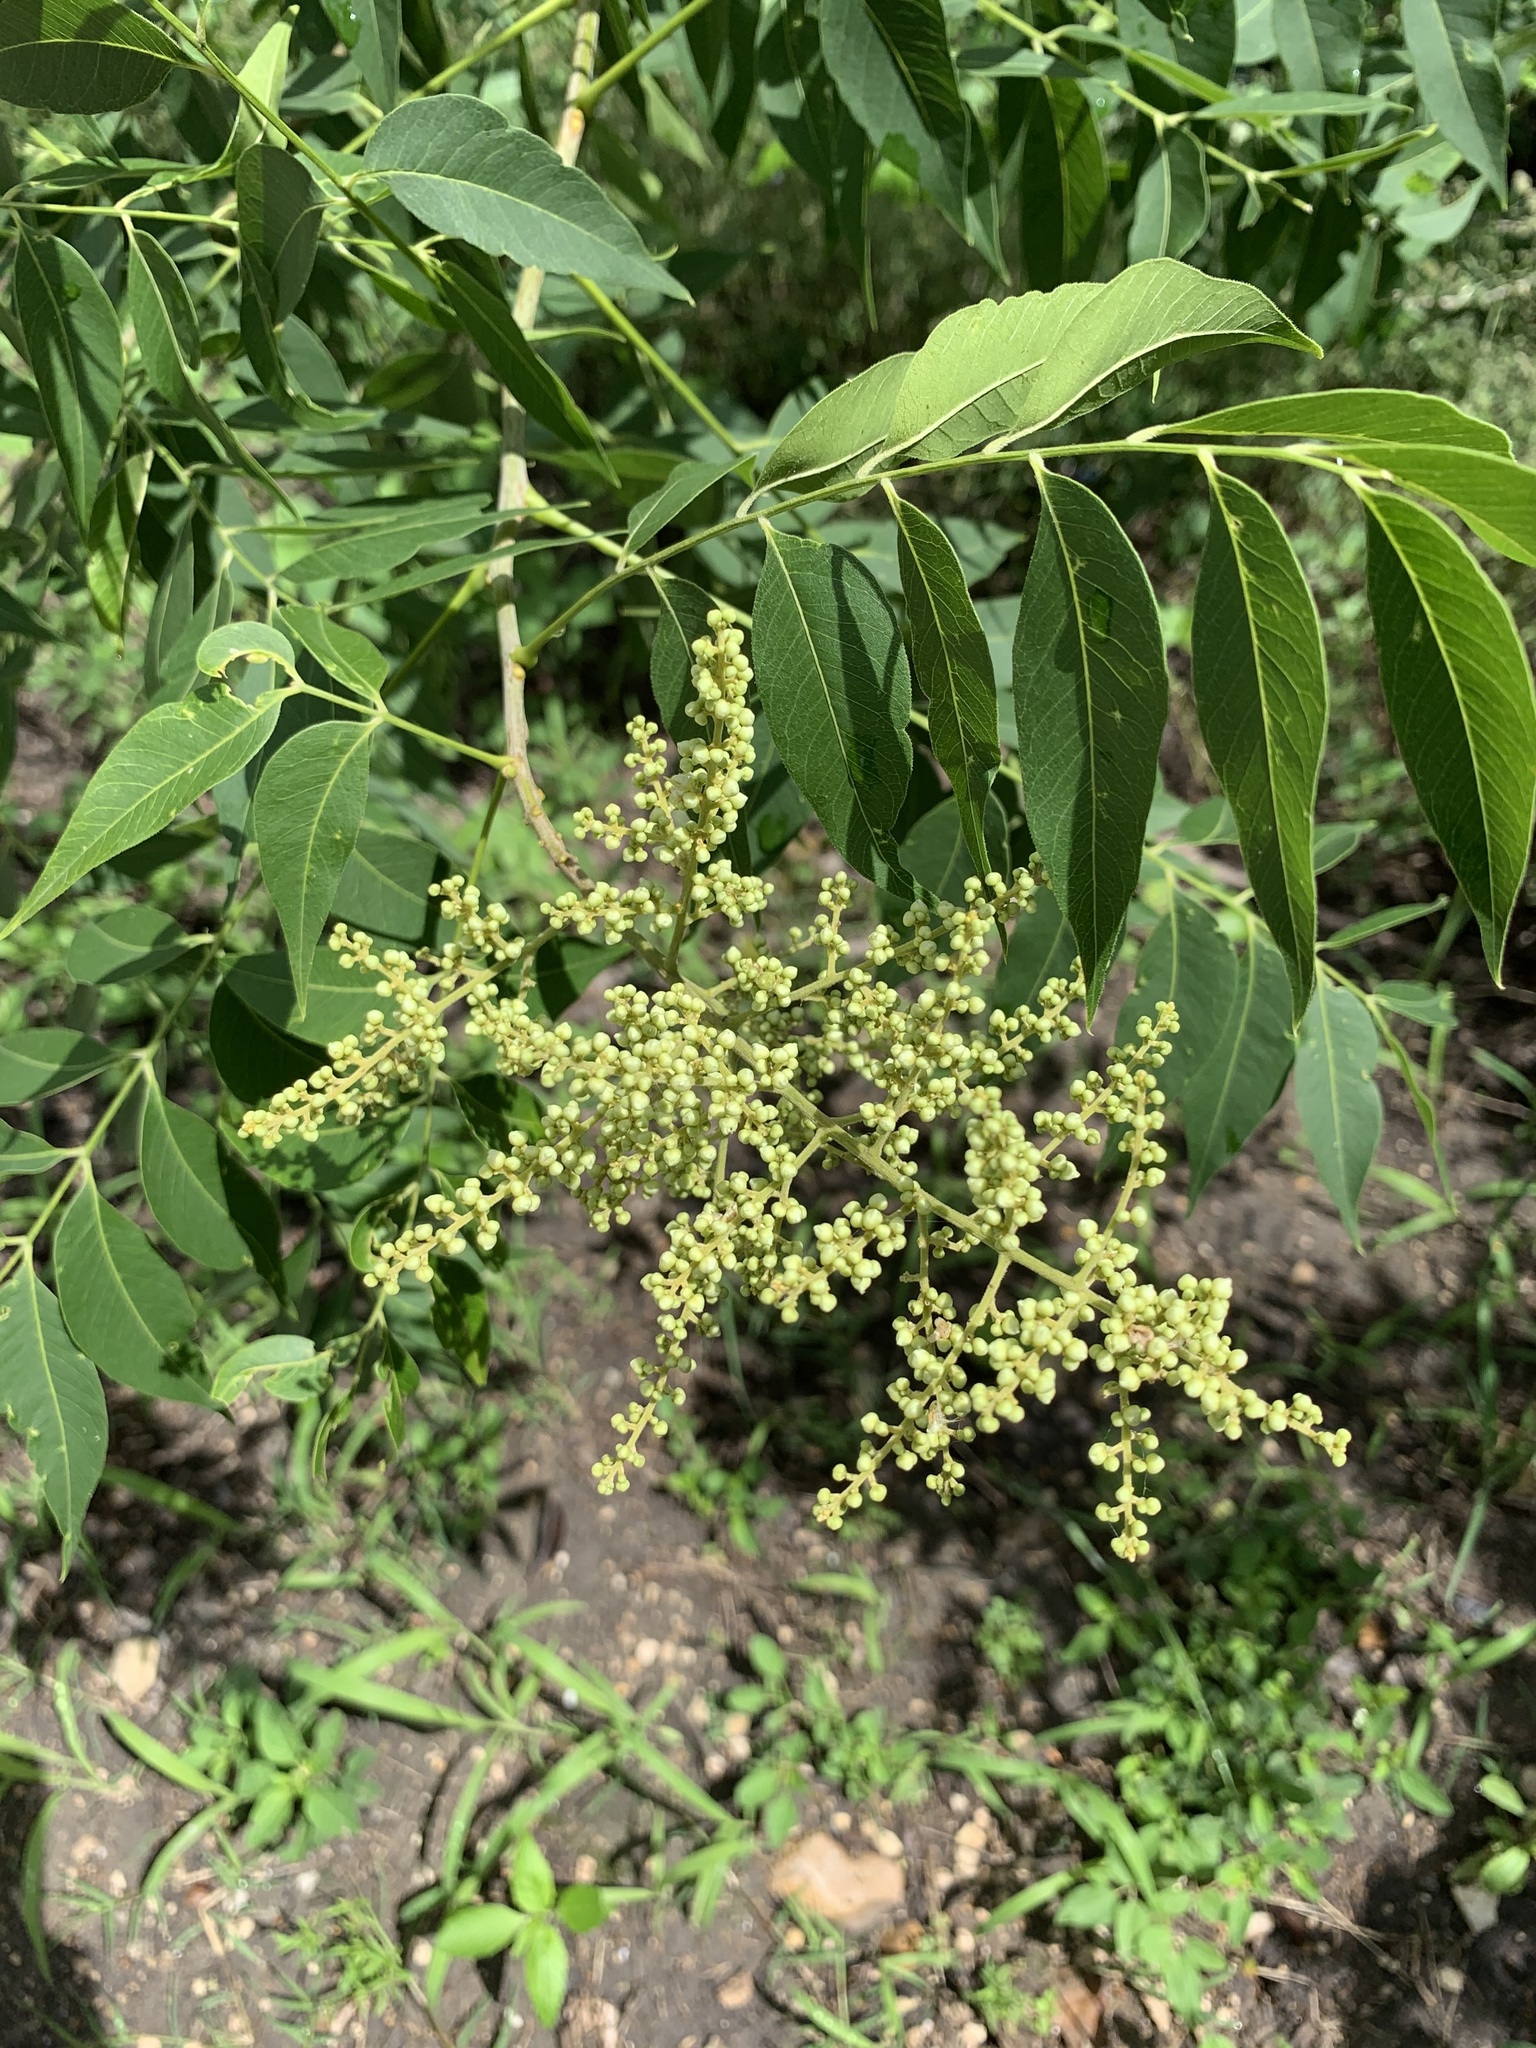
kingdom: Plantae
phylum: Tracheophyta
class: Magnoliopsida
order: Sapindales
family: Sapindaceae
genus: Sapindus
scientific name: Sapindus drummondii
